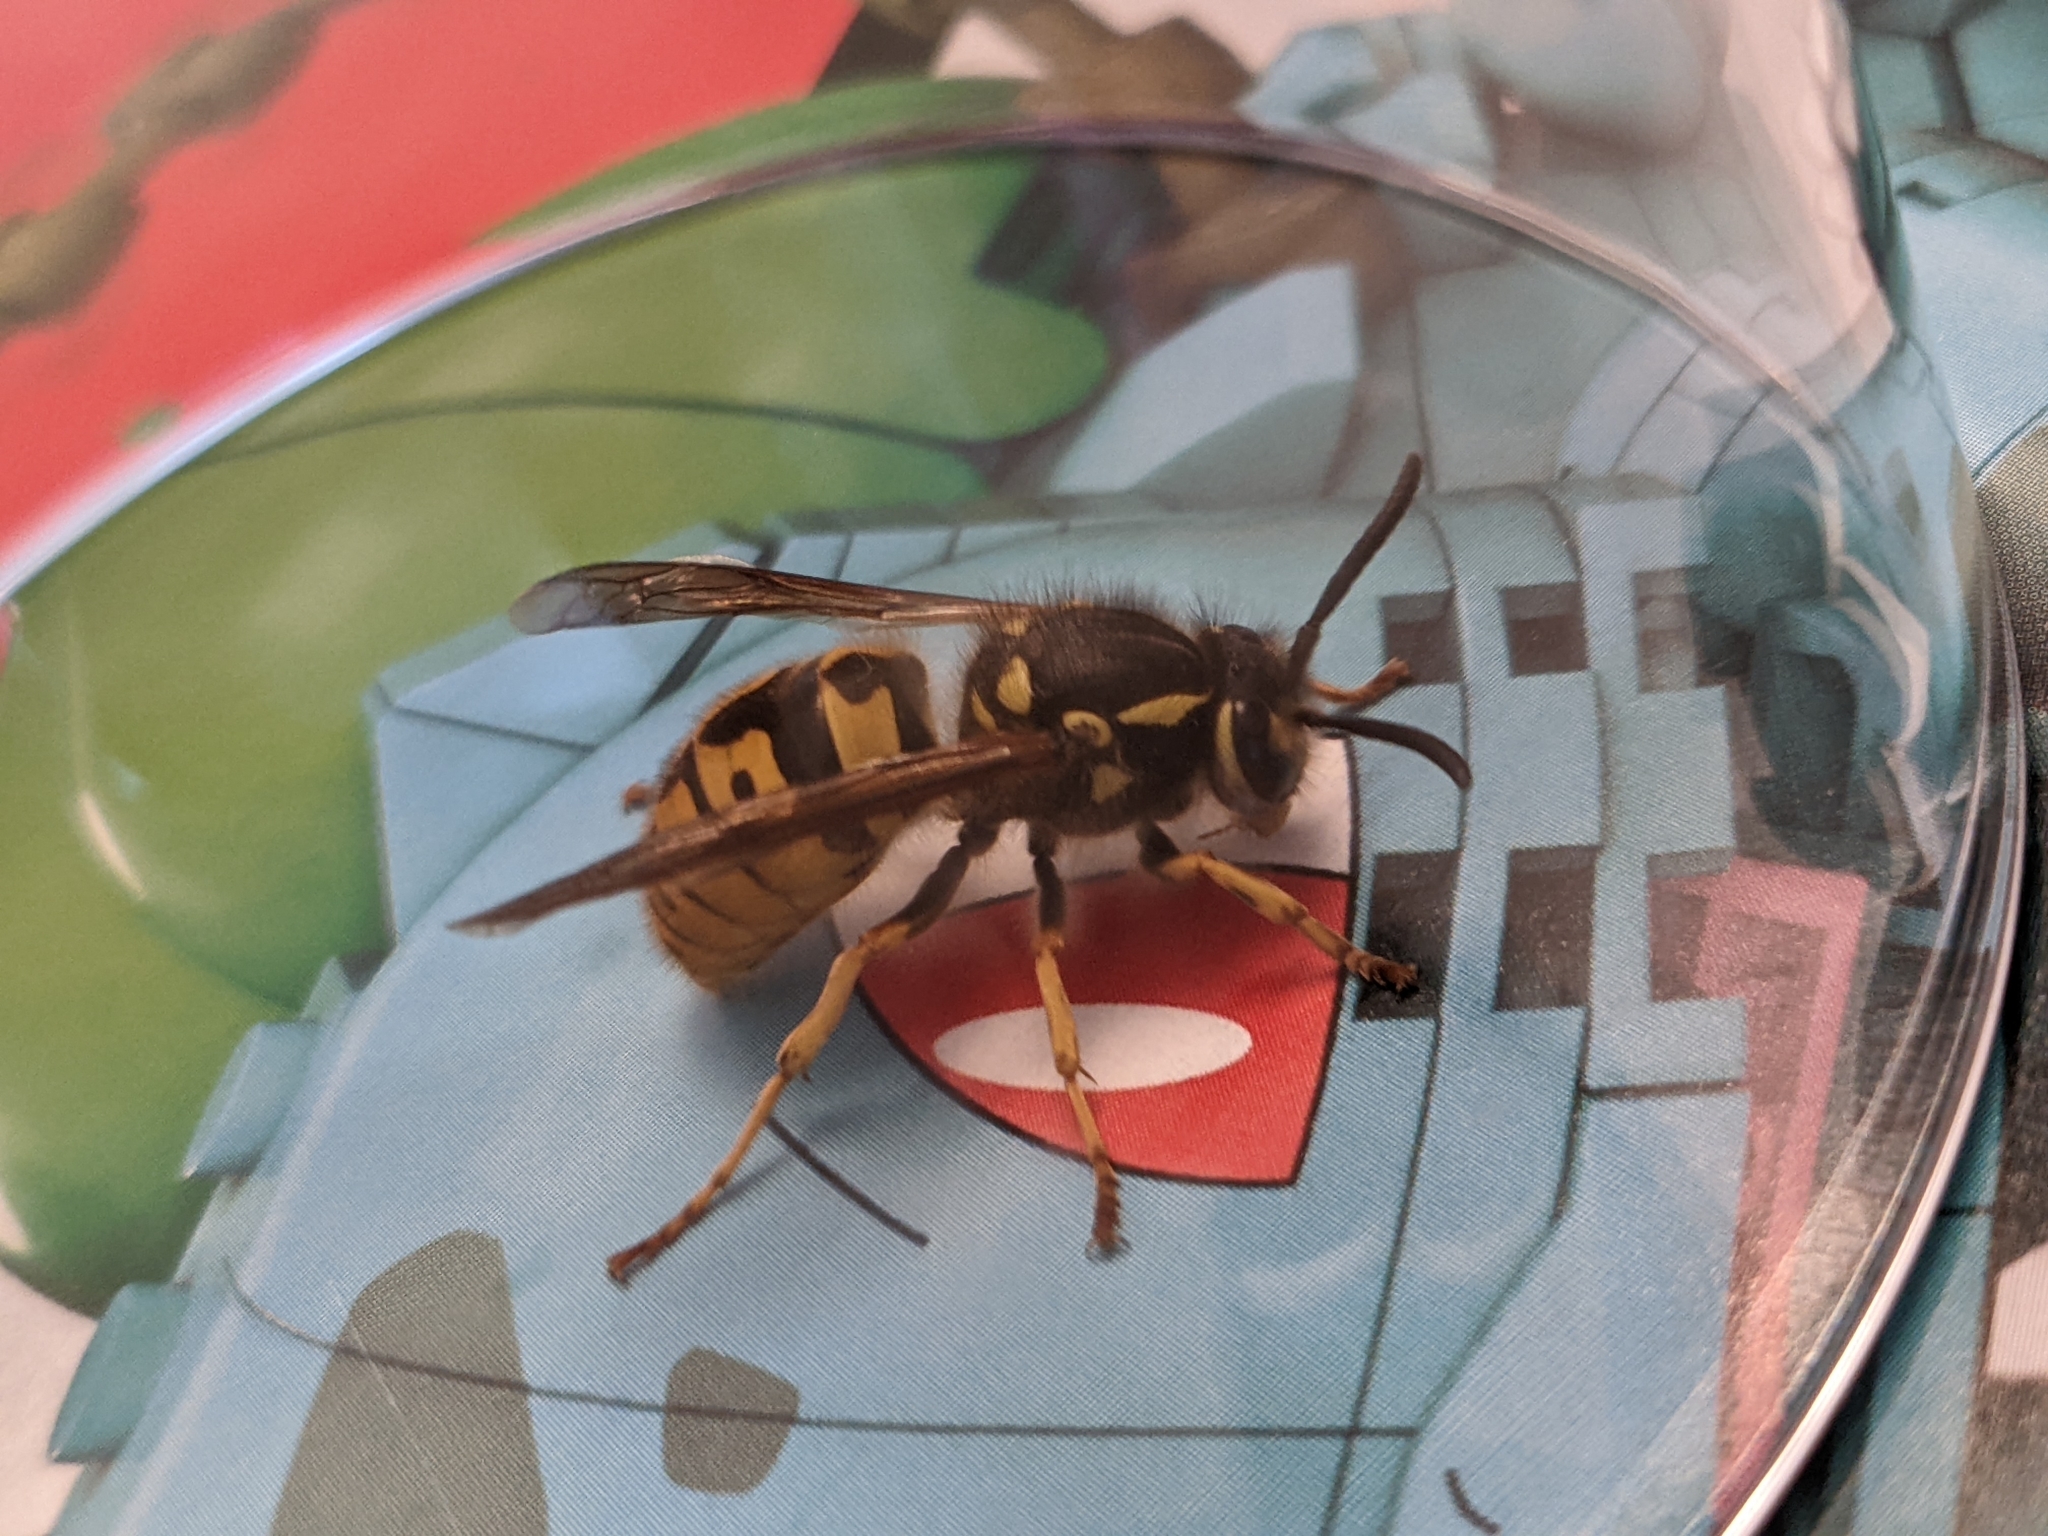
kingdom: Animalia
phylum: Arthropoda
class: Insecta
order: Hymenoptera
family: Vespidae
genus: Vespula
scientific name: Vespula germanica
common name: German wasp
